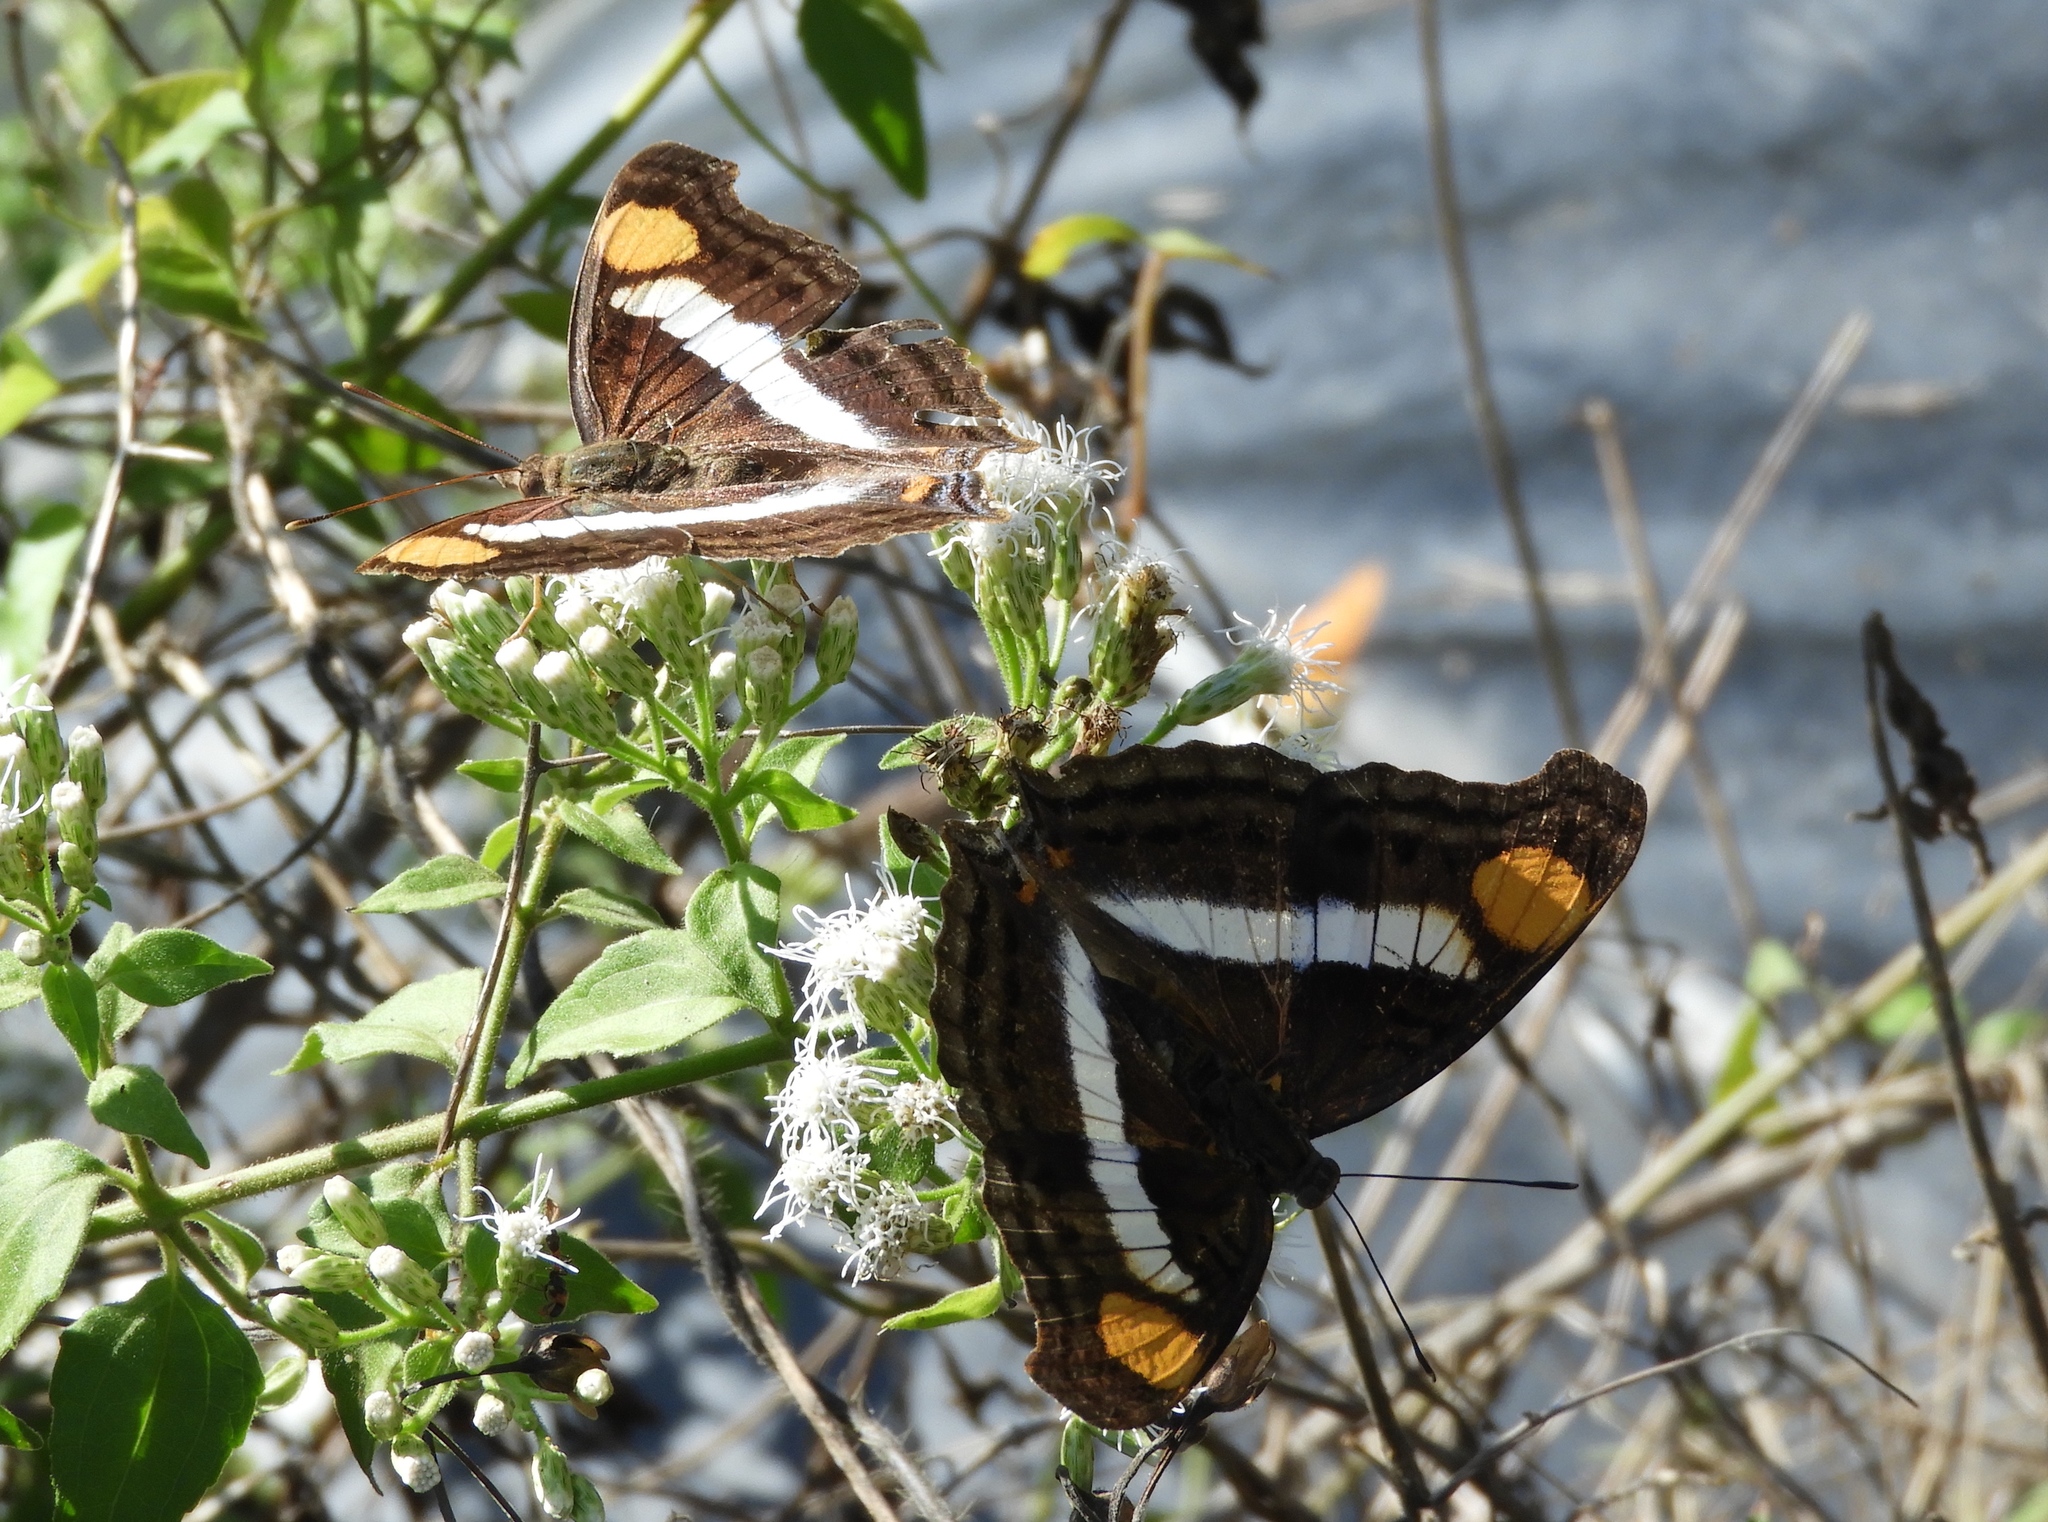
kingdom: Animalia
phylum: Arthropoda
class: Insecta
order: Lepidoptera
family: Nymphalidae
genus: Doxocopa
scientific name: Doxocopa laure
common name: Silver emperor
